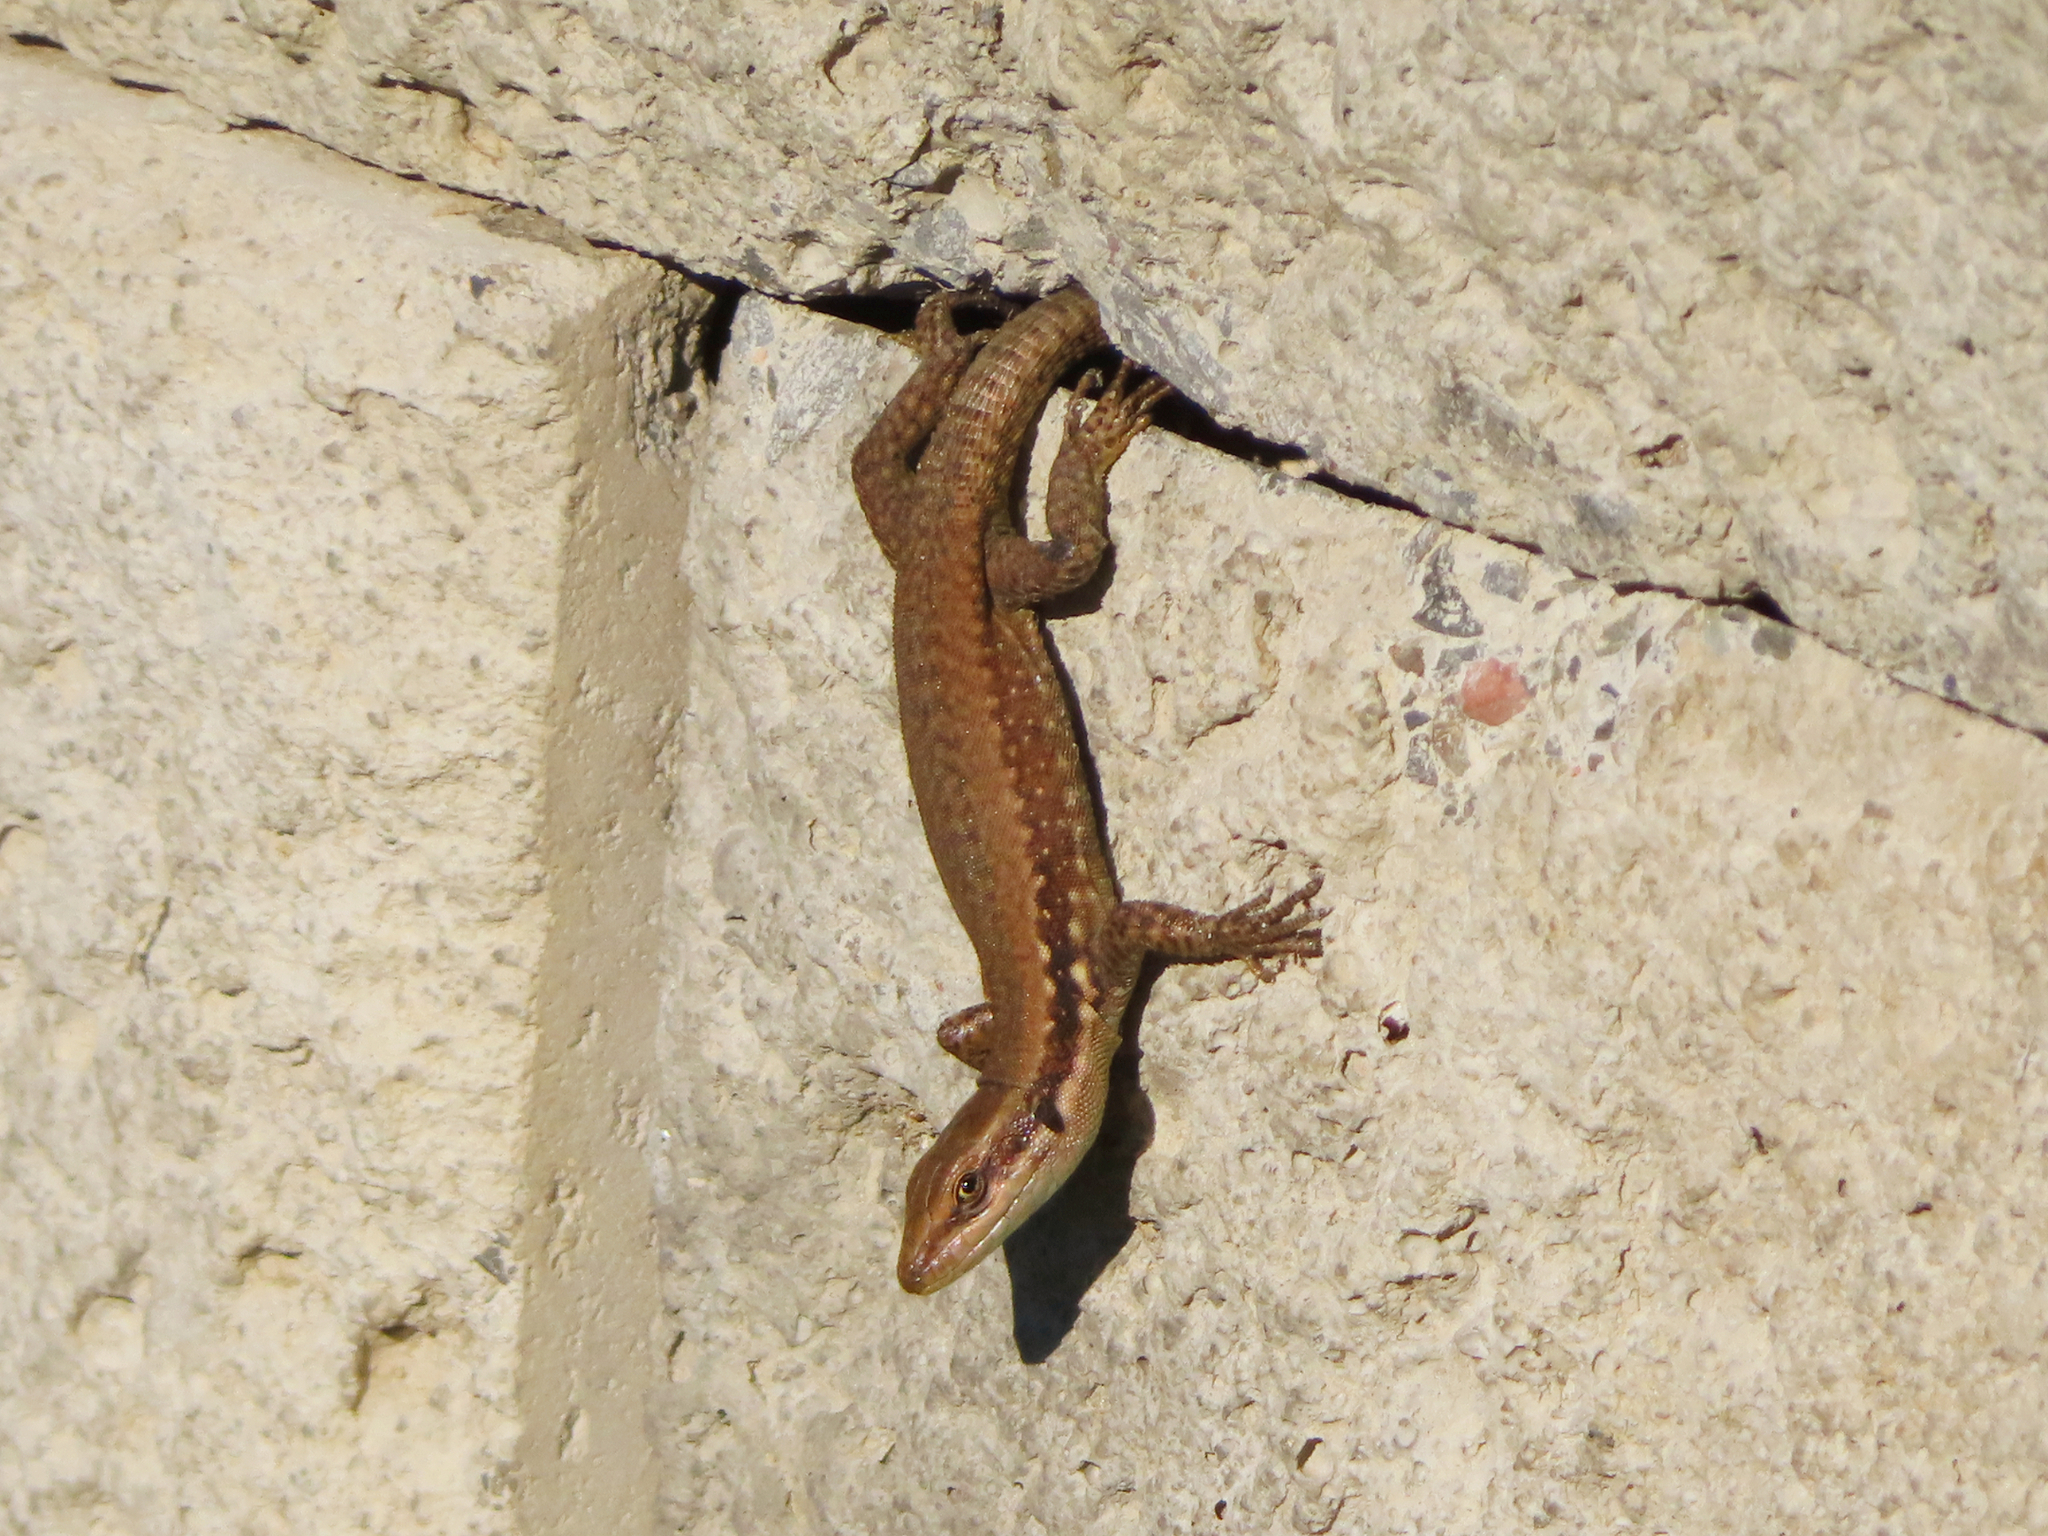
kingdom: Animalia
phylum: Chordata
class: Squamata
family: Lacertidae
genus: Phoenicolacerta
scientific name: Phoenicolacerta laevis
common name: Lebanon lizard
